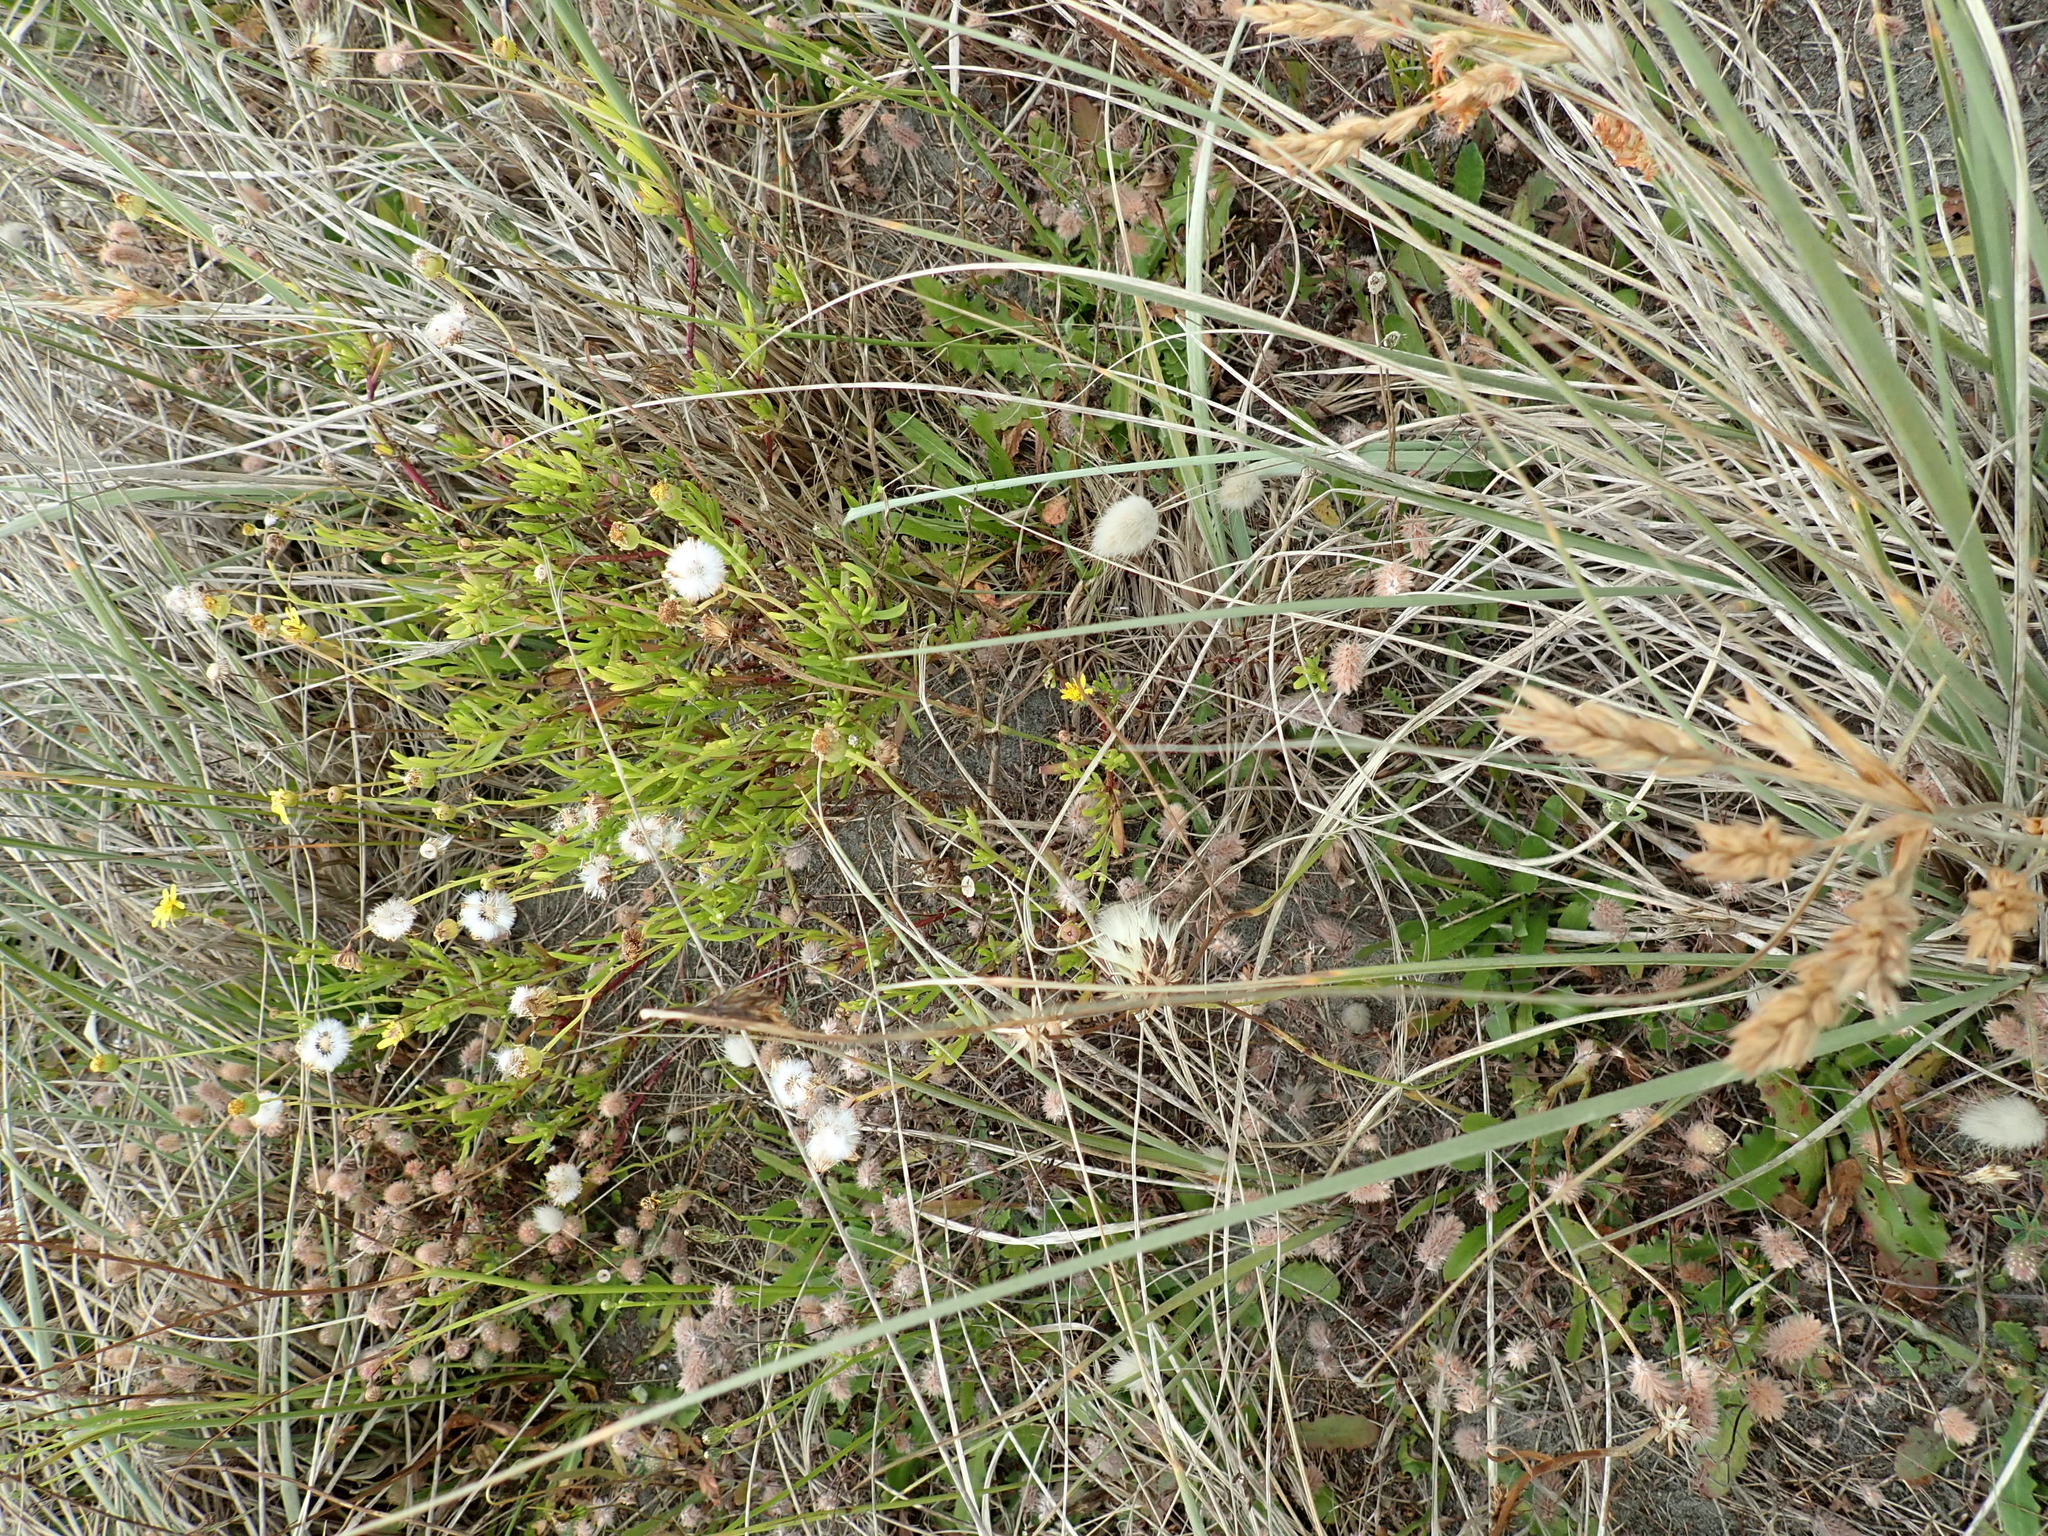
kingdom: Plantae
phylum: Tracheophyta
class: Magnoliopsida
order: Asterales
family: Asteraceae
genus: Senecio
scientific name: Senecio skirrhodon
